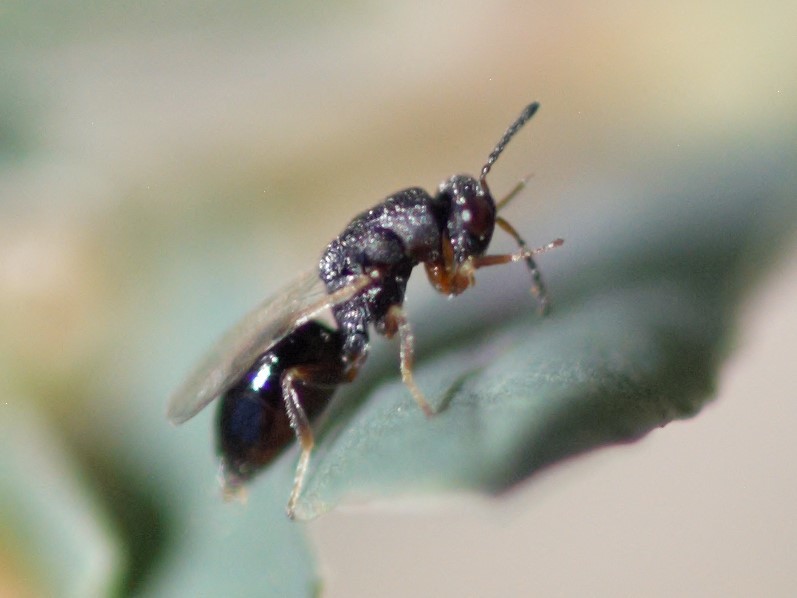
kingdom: Animalia
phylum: Arthropoda
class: Insecta
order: Hymenoptera
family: Eurytomidae
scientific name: Eurytomidae
